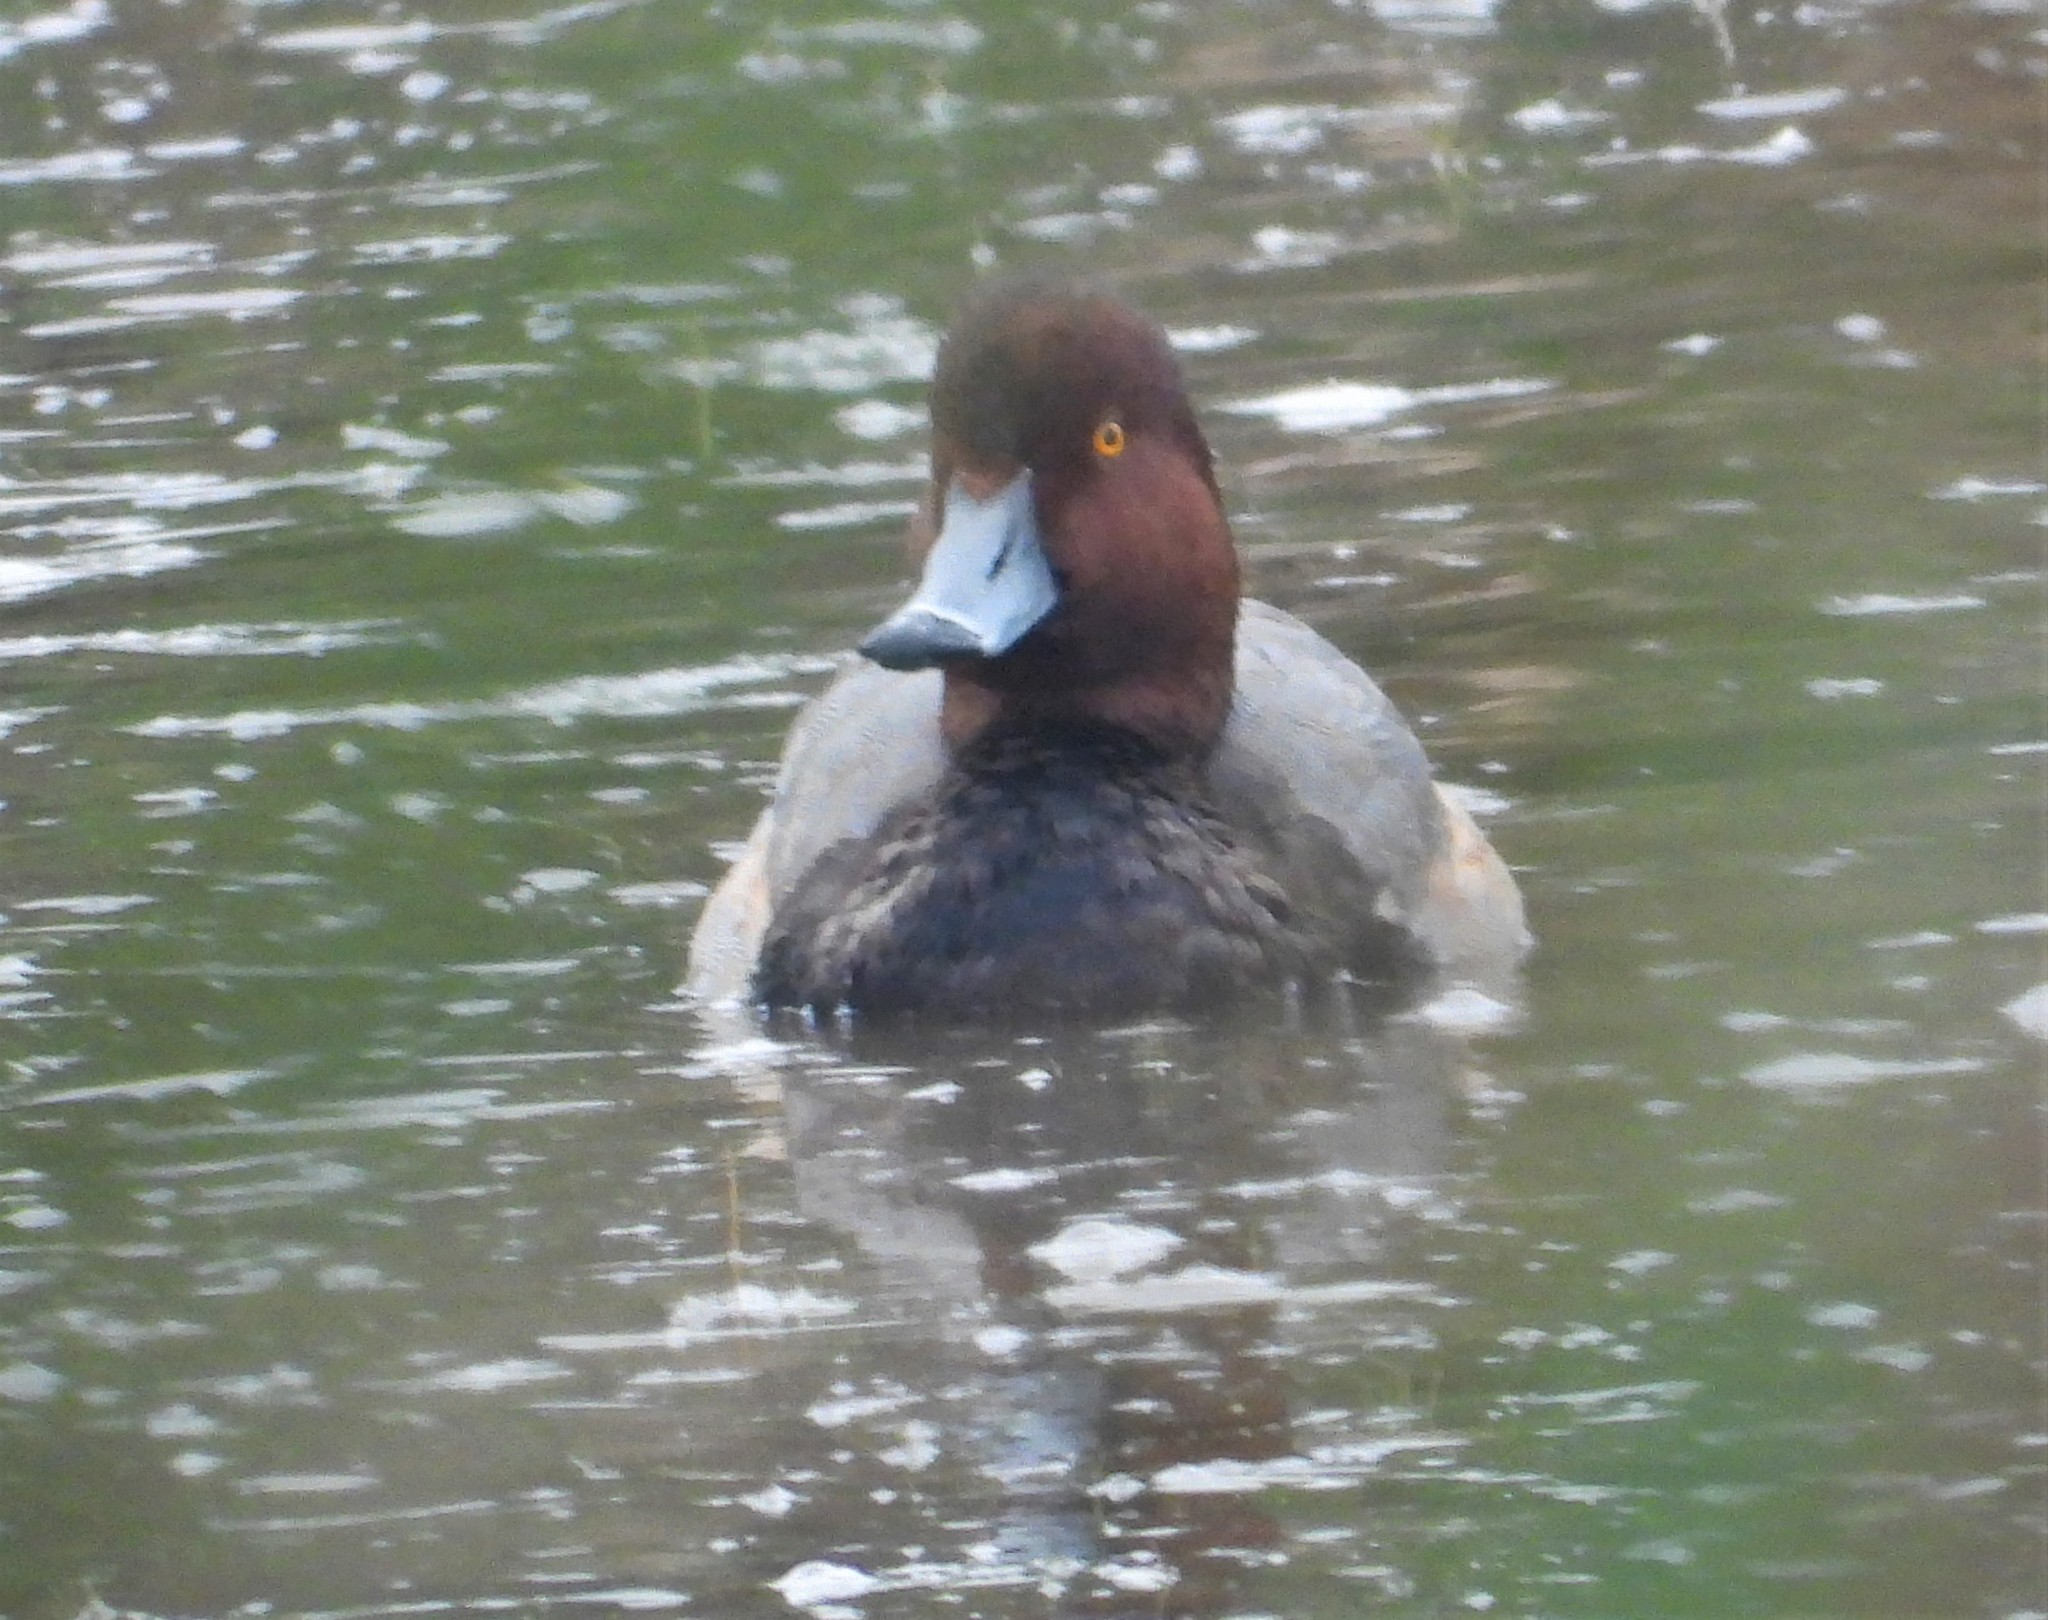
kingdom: Animalia
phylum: Chordata
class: Aves
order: Anseriformes
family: Anatidae
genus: Aythya
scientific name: Aythya americana
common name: Redhead
